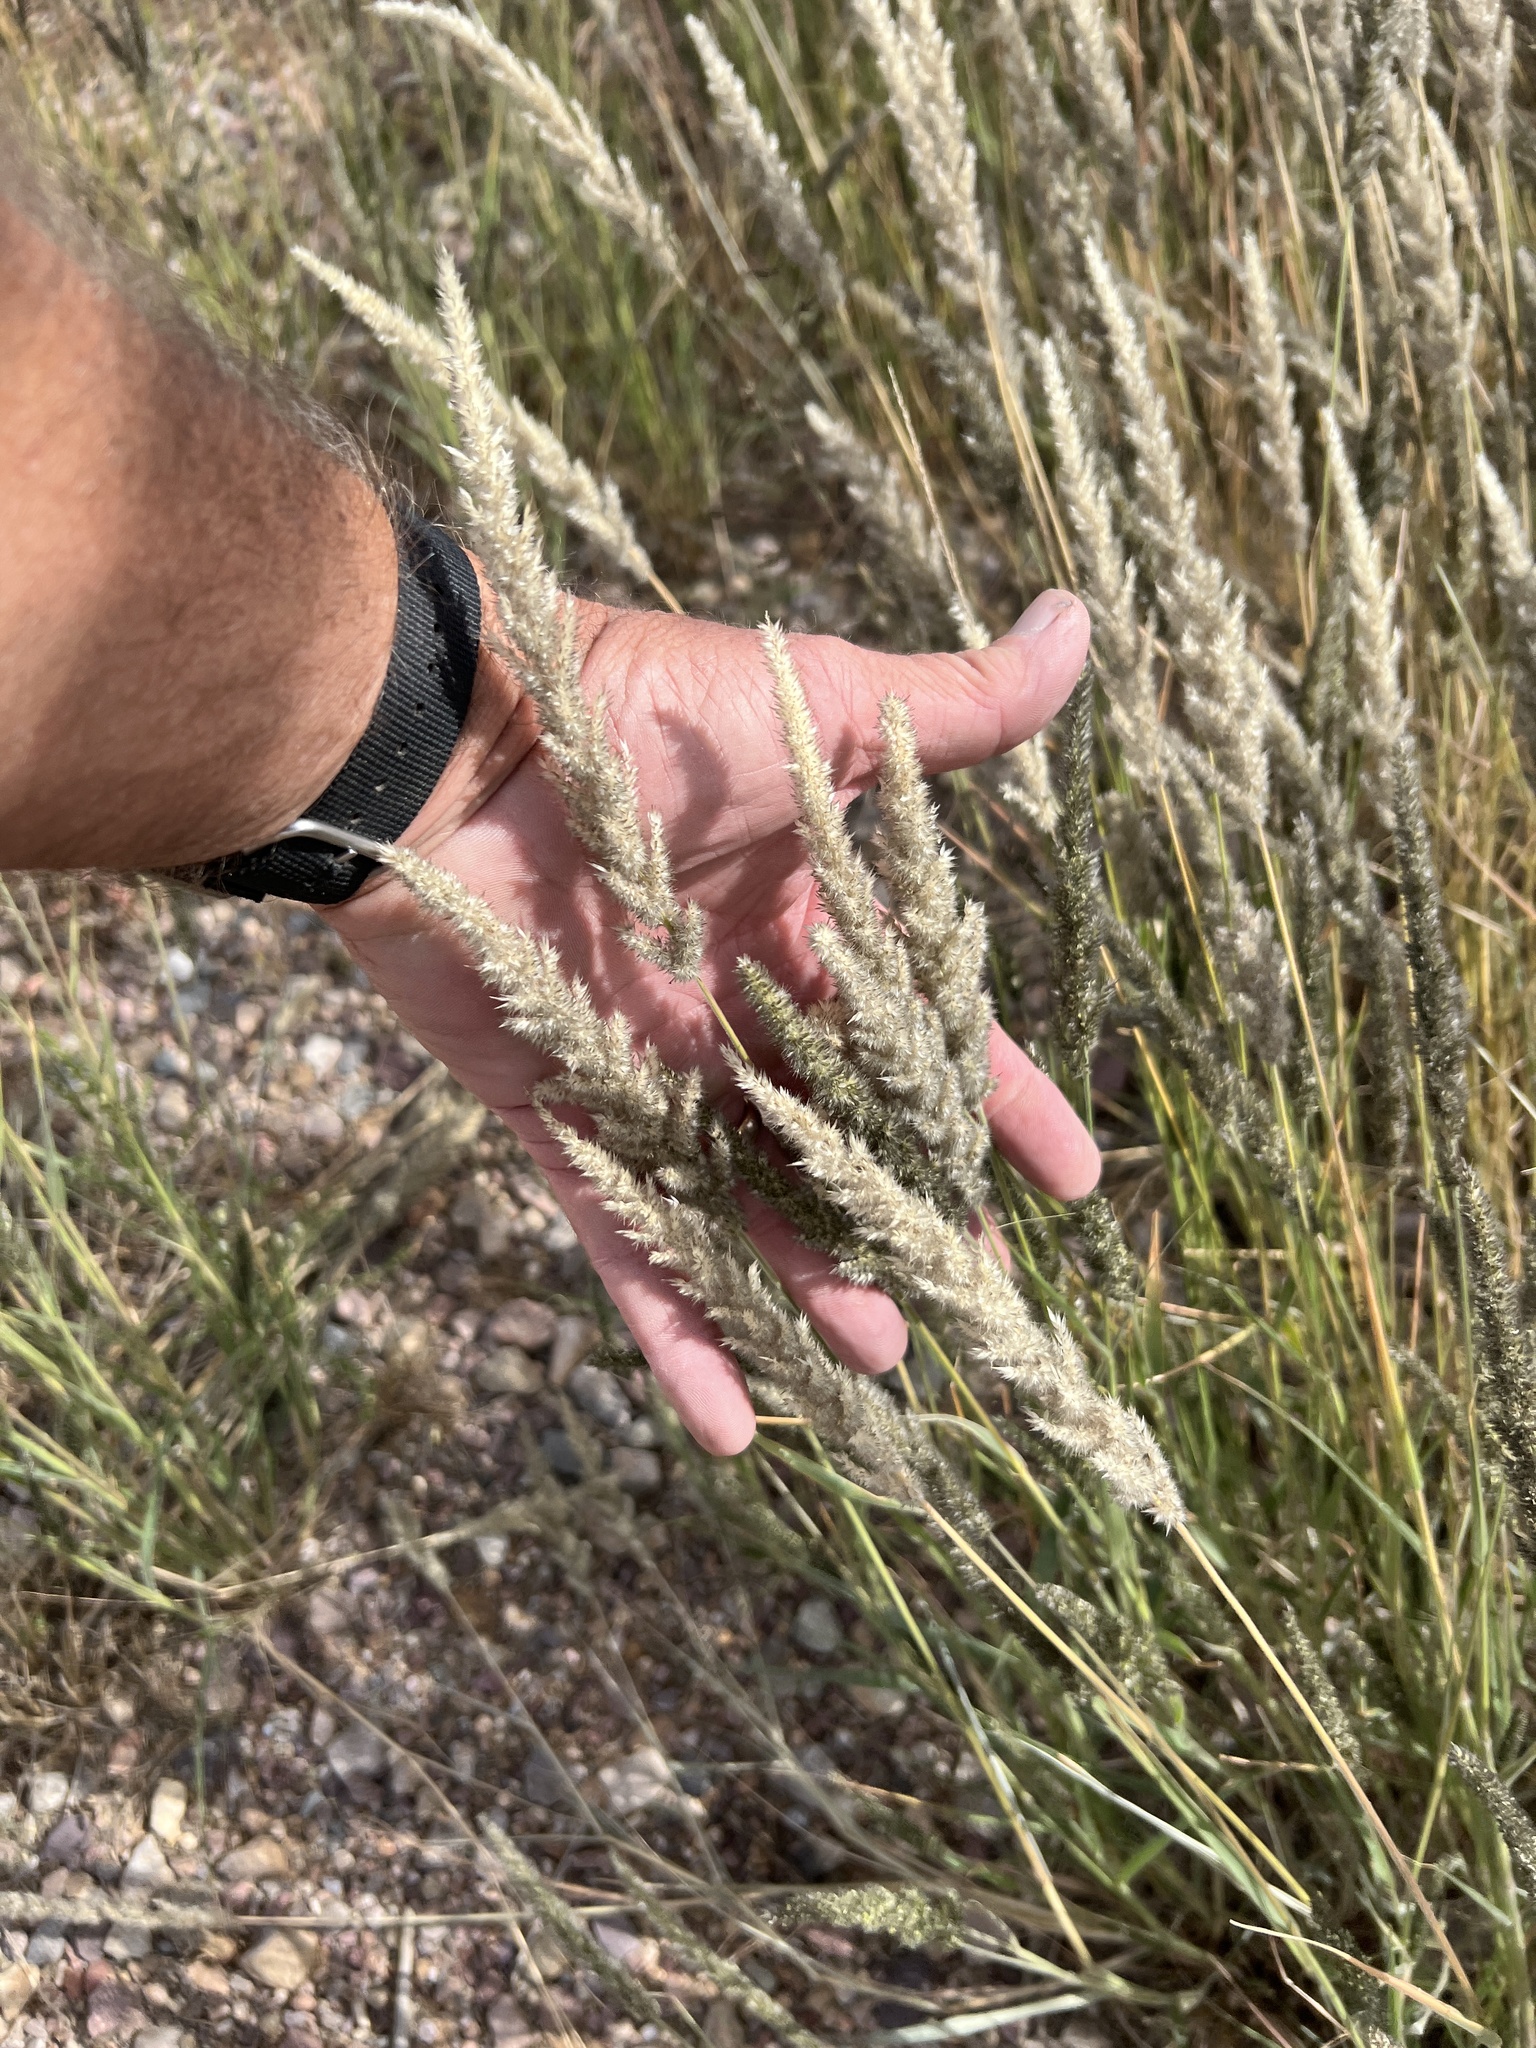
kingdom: Plantae
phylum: Tracheophyta
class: Liliopsida
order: Poales
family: Poaceae
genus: Enneapogon
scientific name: Enneapogon cenchroides
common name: Soft feather pappusgrass
